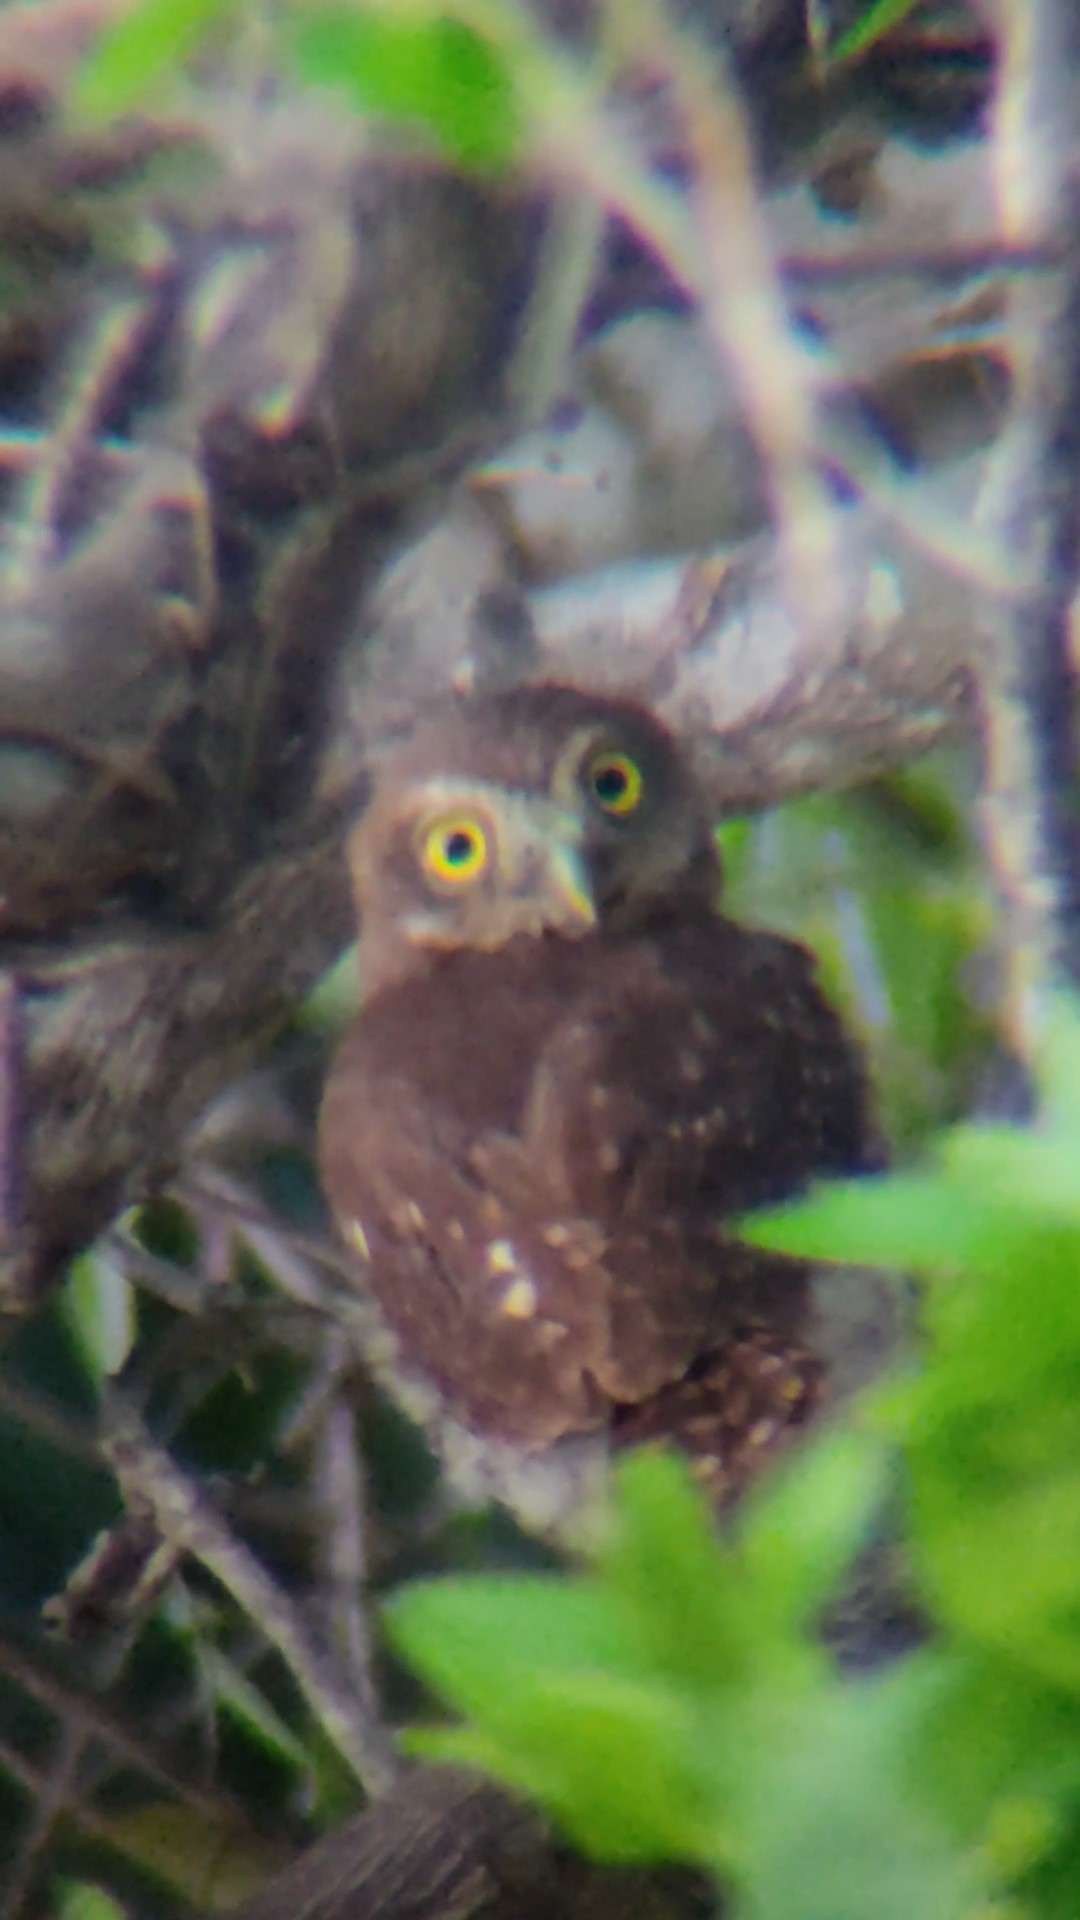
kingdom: Animalia
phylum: Chordata
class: Aves
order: Strigiformes
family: Strigidae
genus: Glaucidium
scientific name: Glaucidium brasilianum
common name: Ferruginous pygmy-owl
